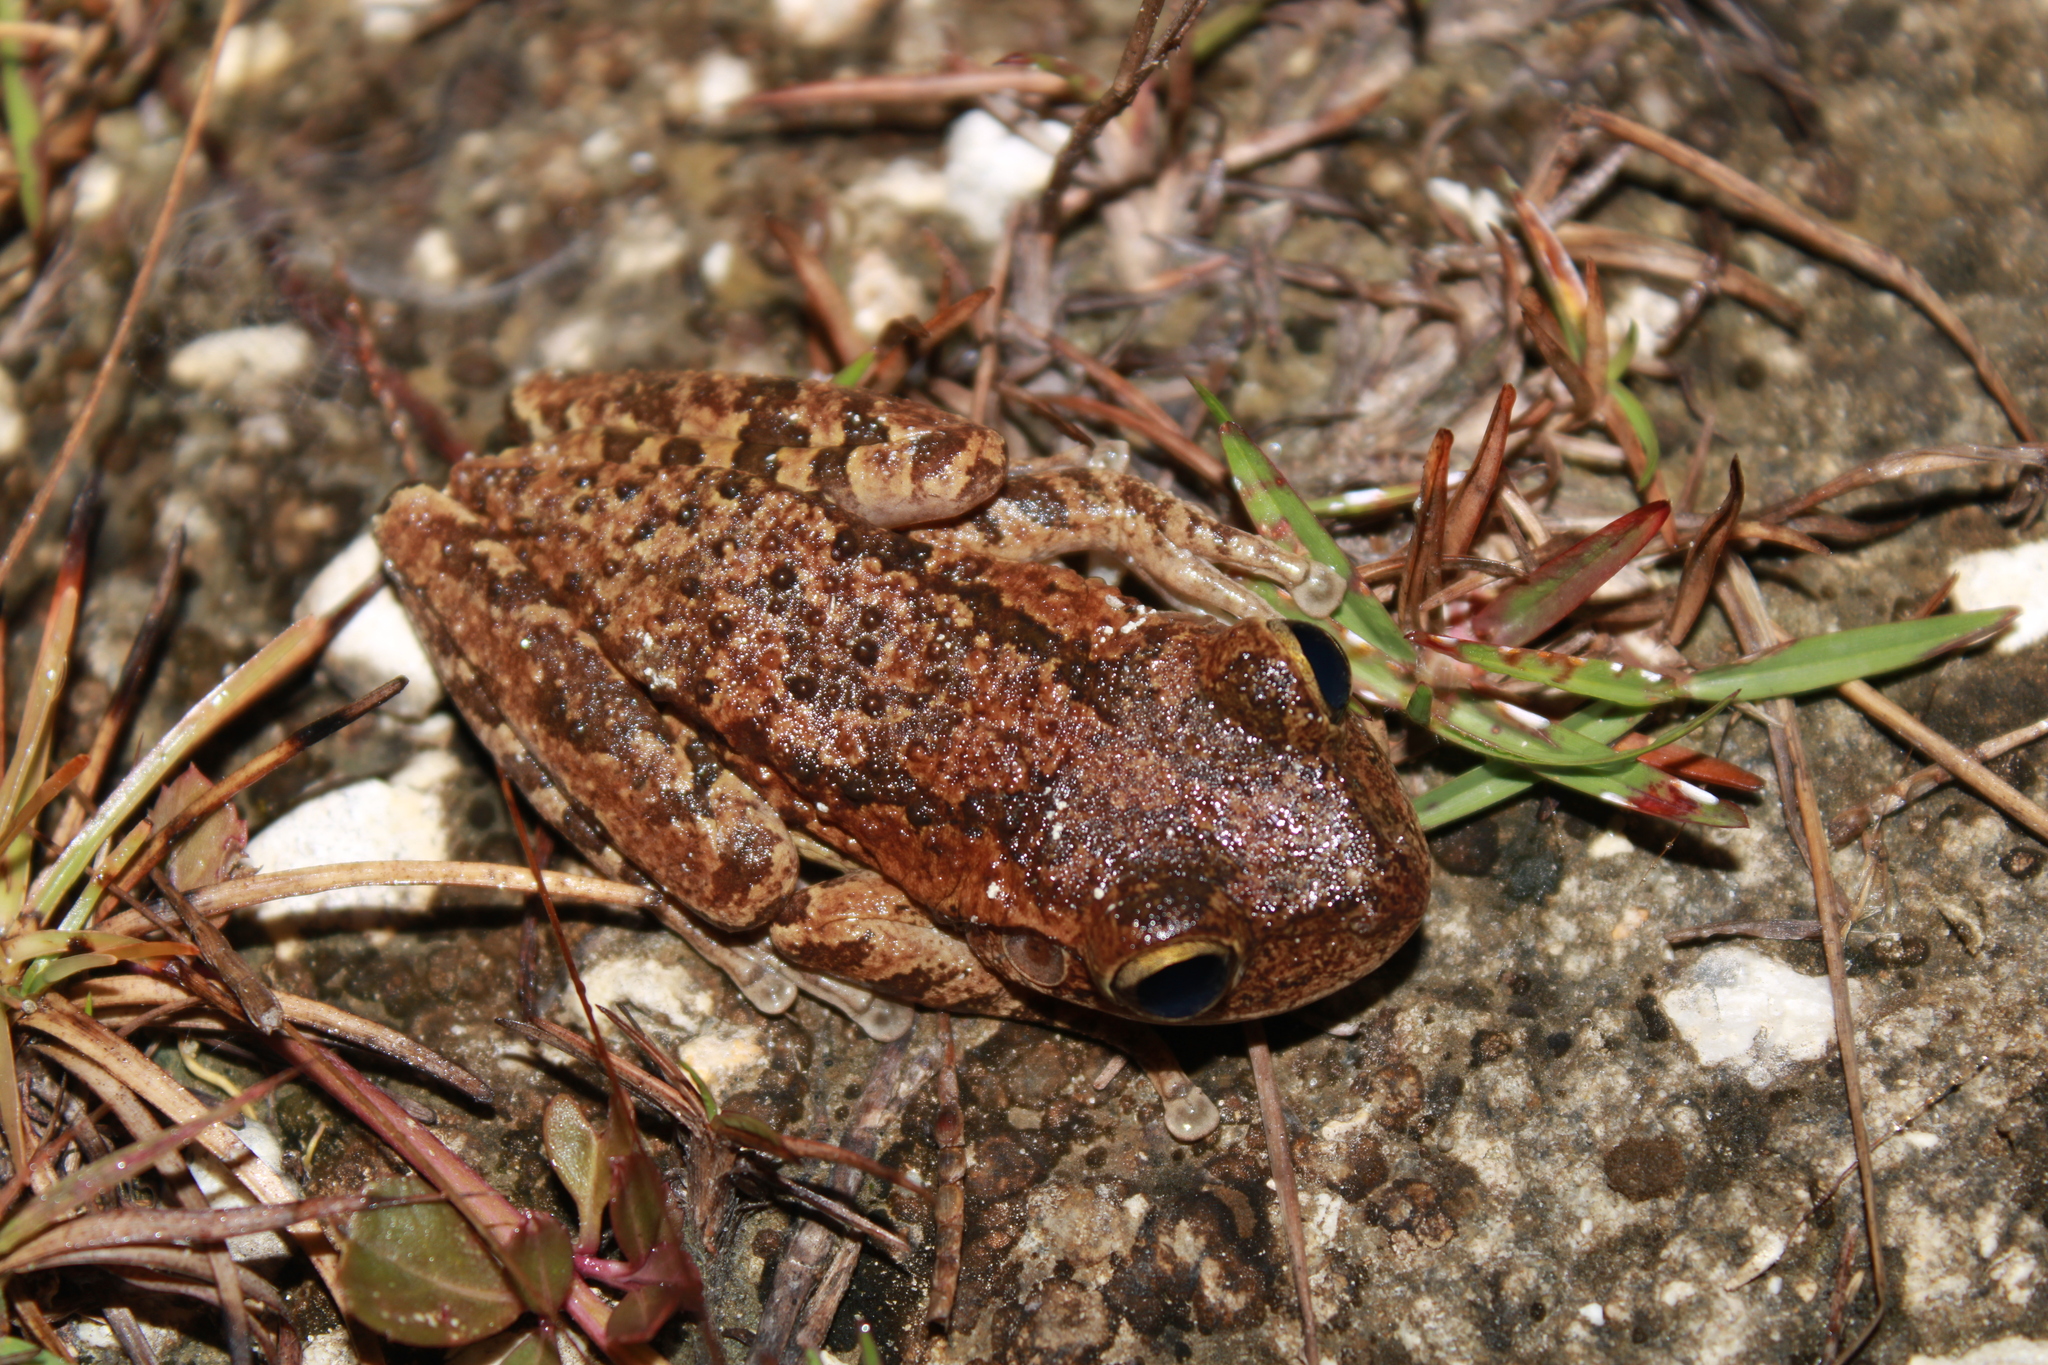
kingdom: Animalia
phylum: Chordata
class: Amphibia
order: Anura
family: Hylidae
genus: Osteopilus
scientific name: Osteopilus septentrionalis
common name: Cuban treefrog
